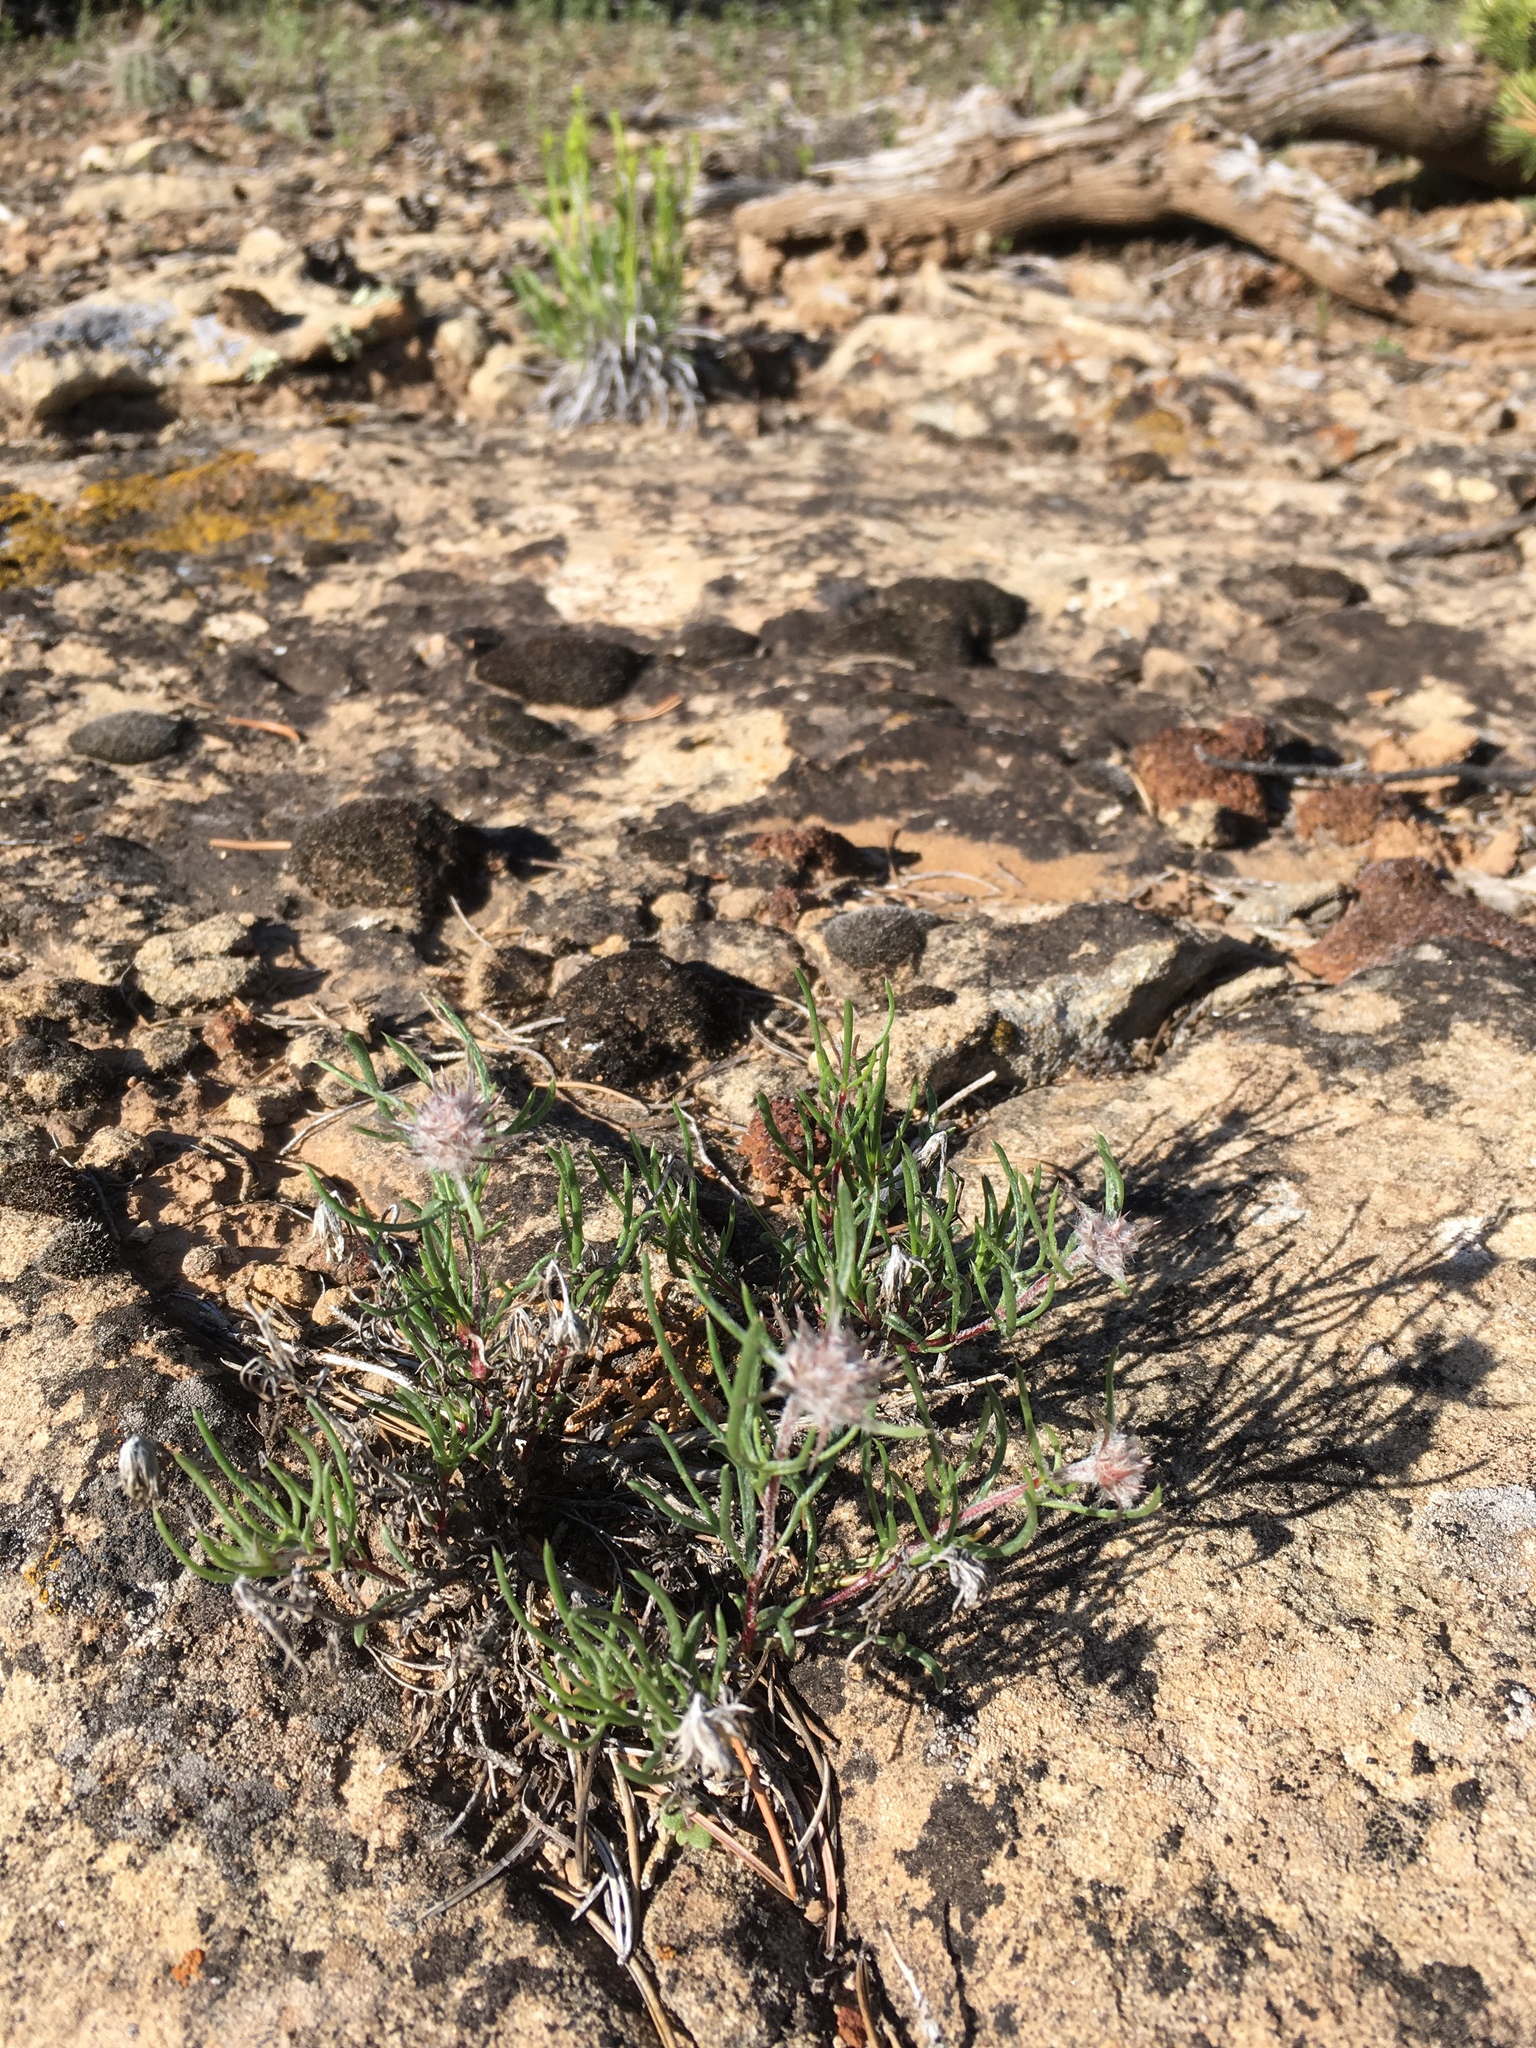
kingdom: Plantae
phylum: Tracheophyta
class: Magnoliopsida
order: Ericales
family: Polemoniaceae
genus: Ipomopsis
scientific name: Ipomopsis congesta
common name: Ball-head gilia
